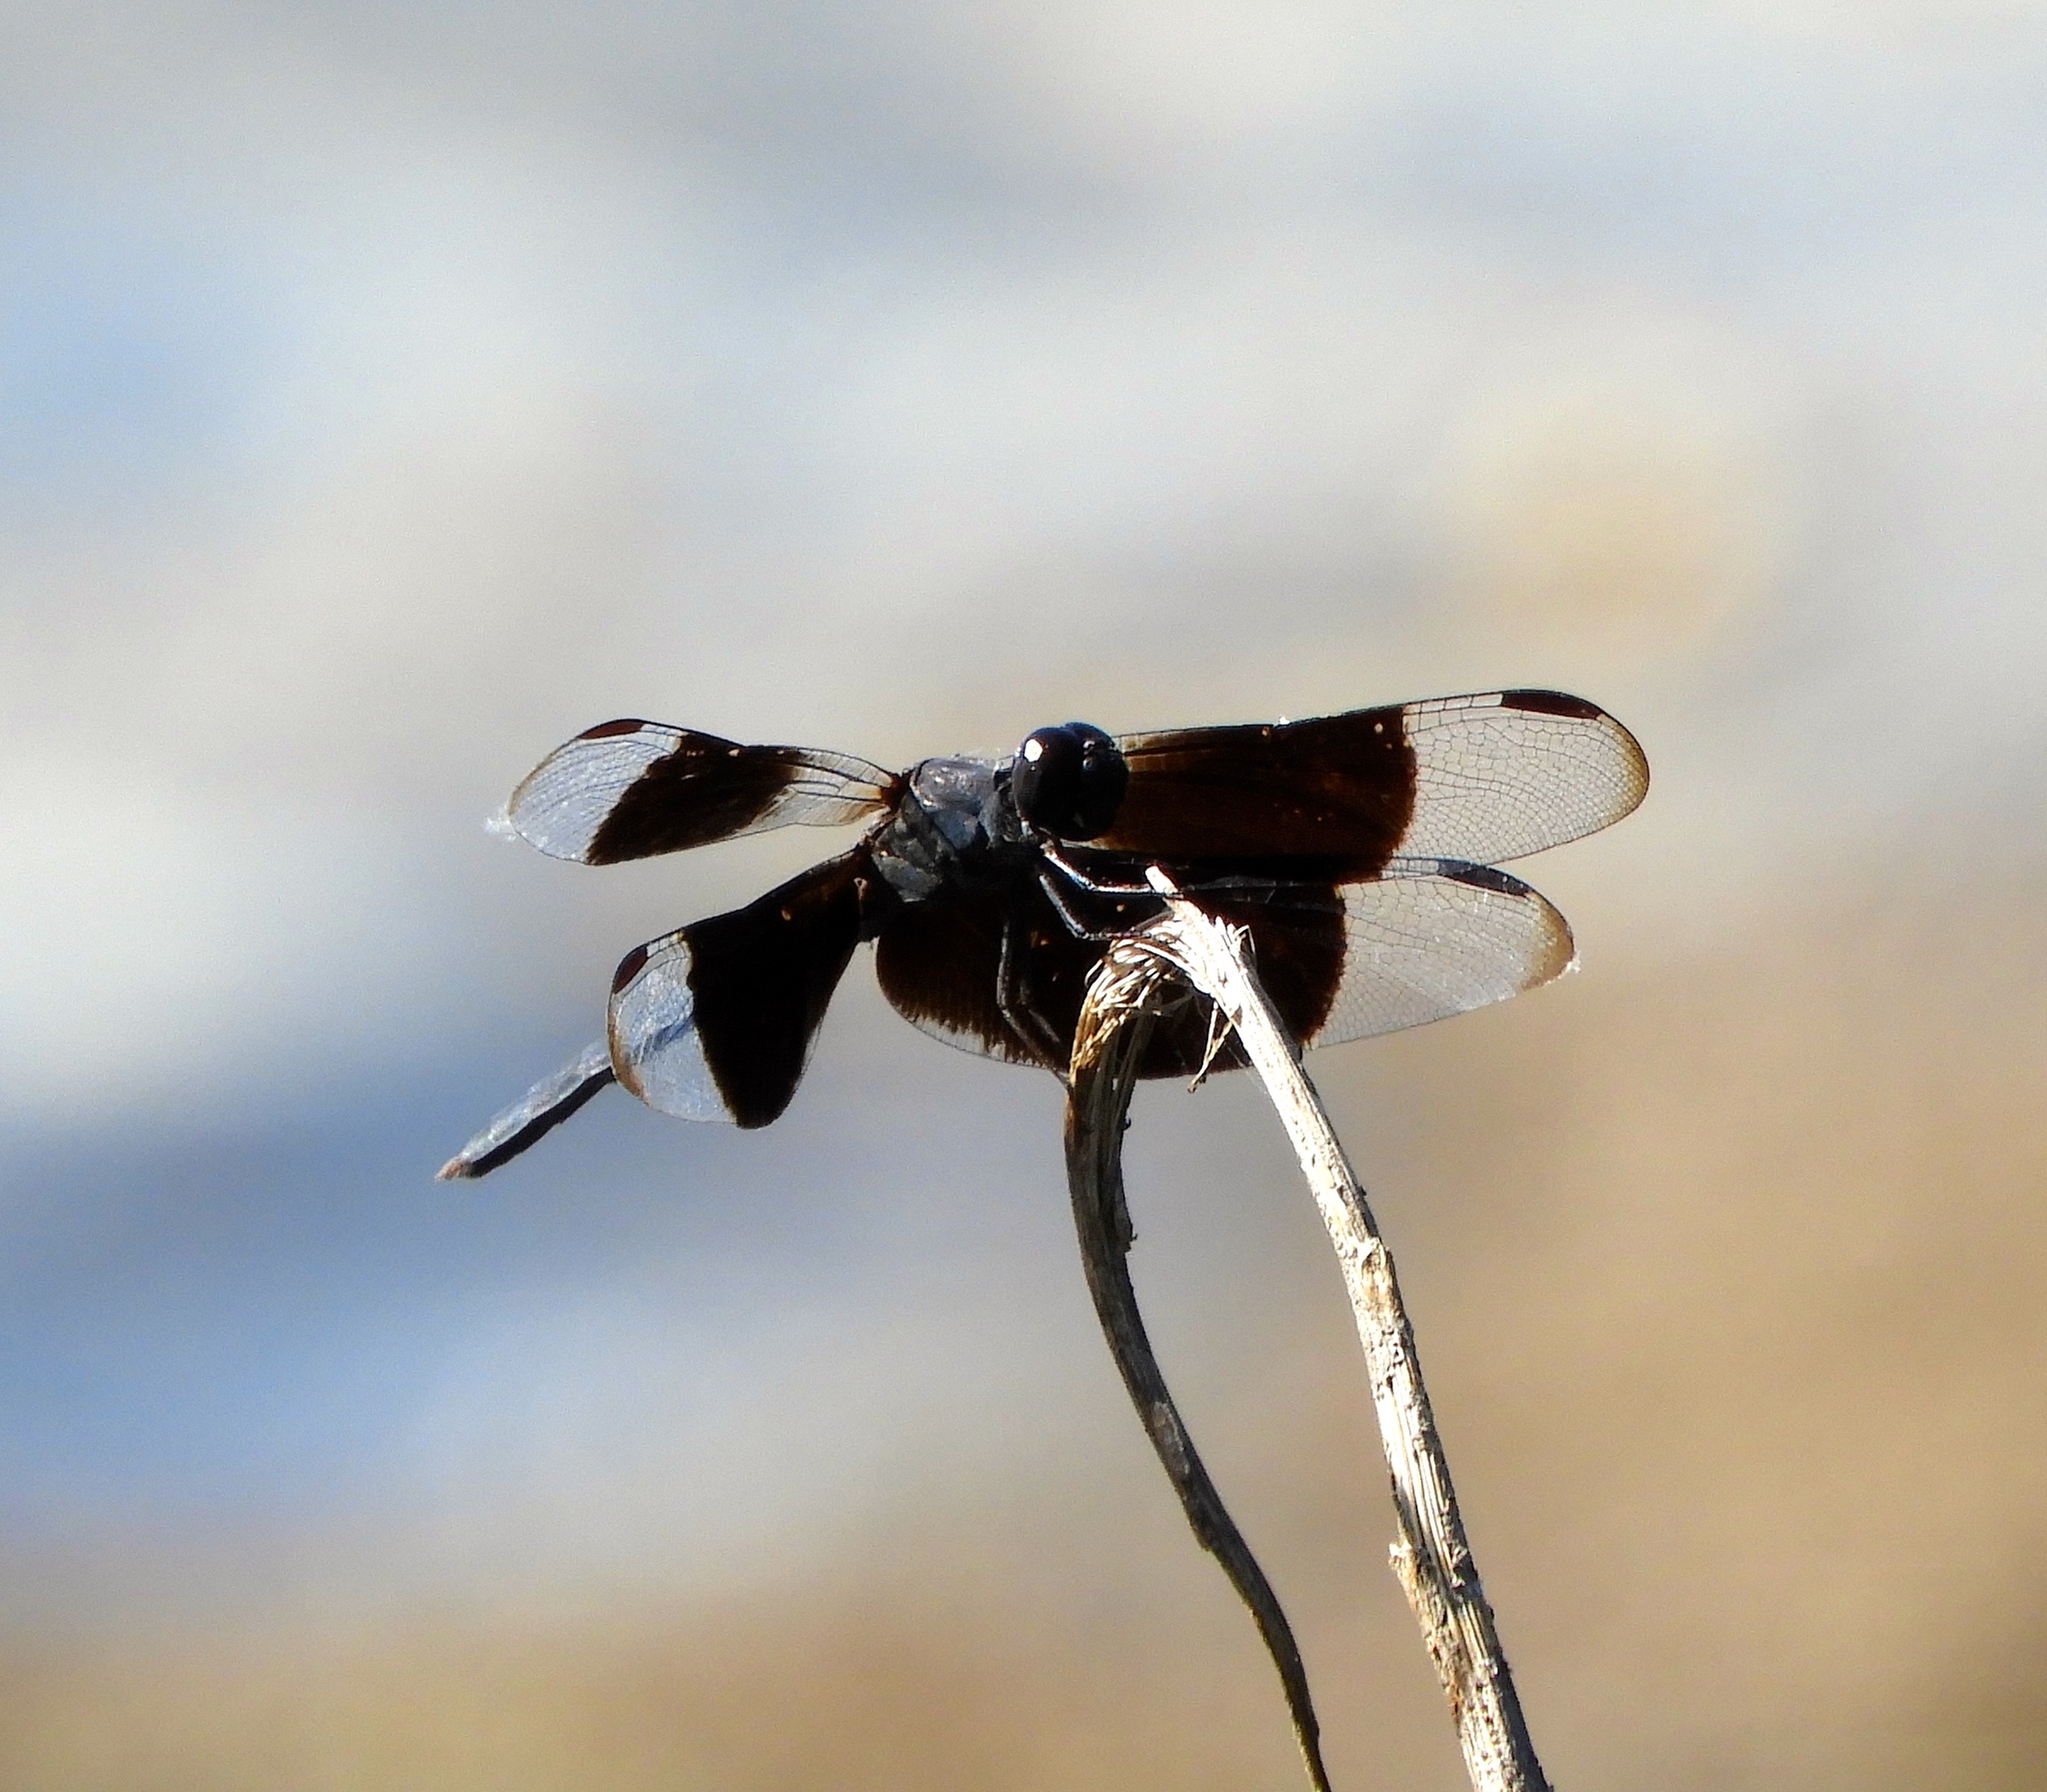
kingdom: Animalia
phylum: Arthropoda
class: Insecta
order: Odonata
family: Libellulidae
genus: Erythrodiplax
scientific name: Erythrodiplax funerea
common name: Black-winged dragonlet
